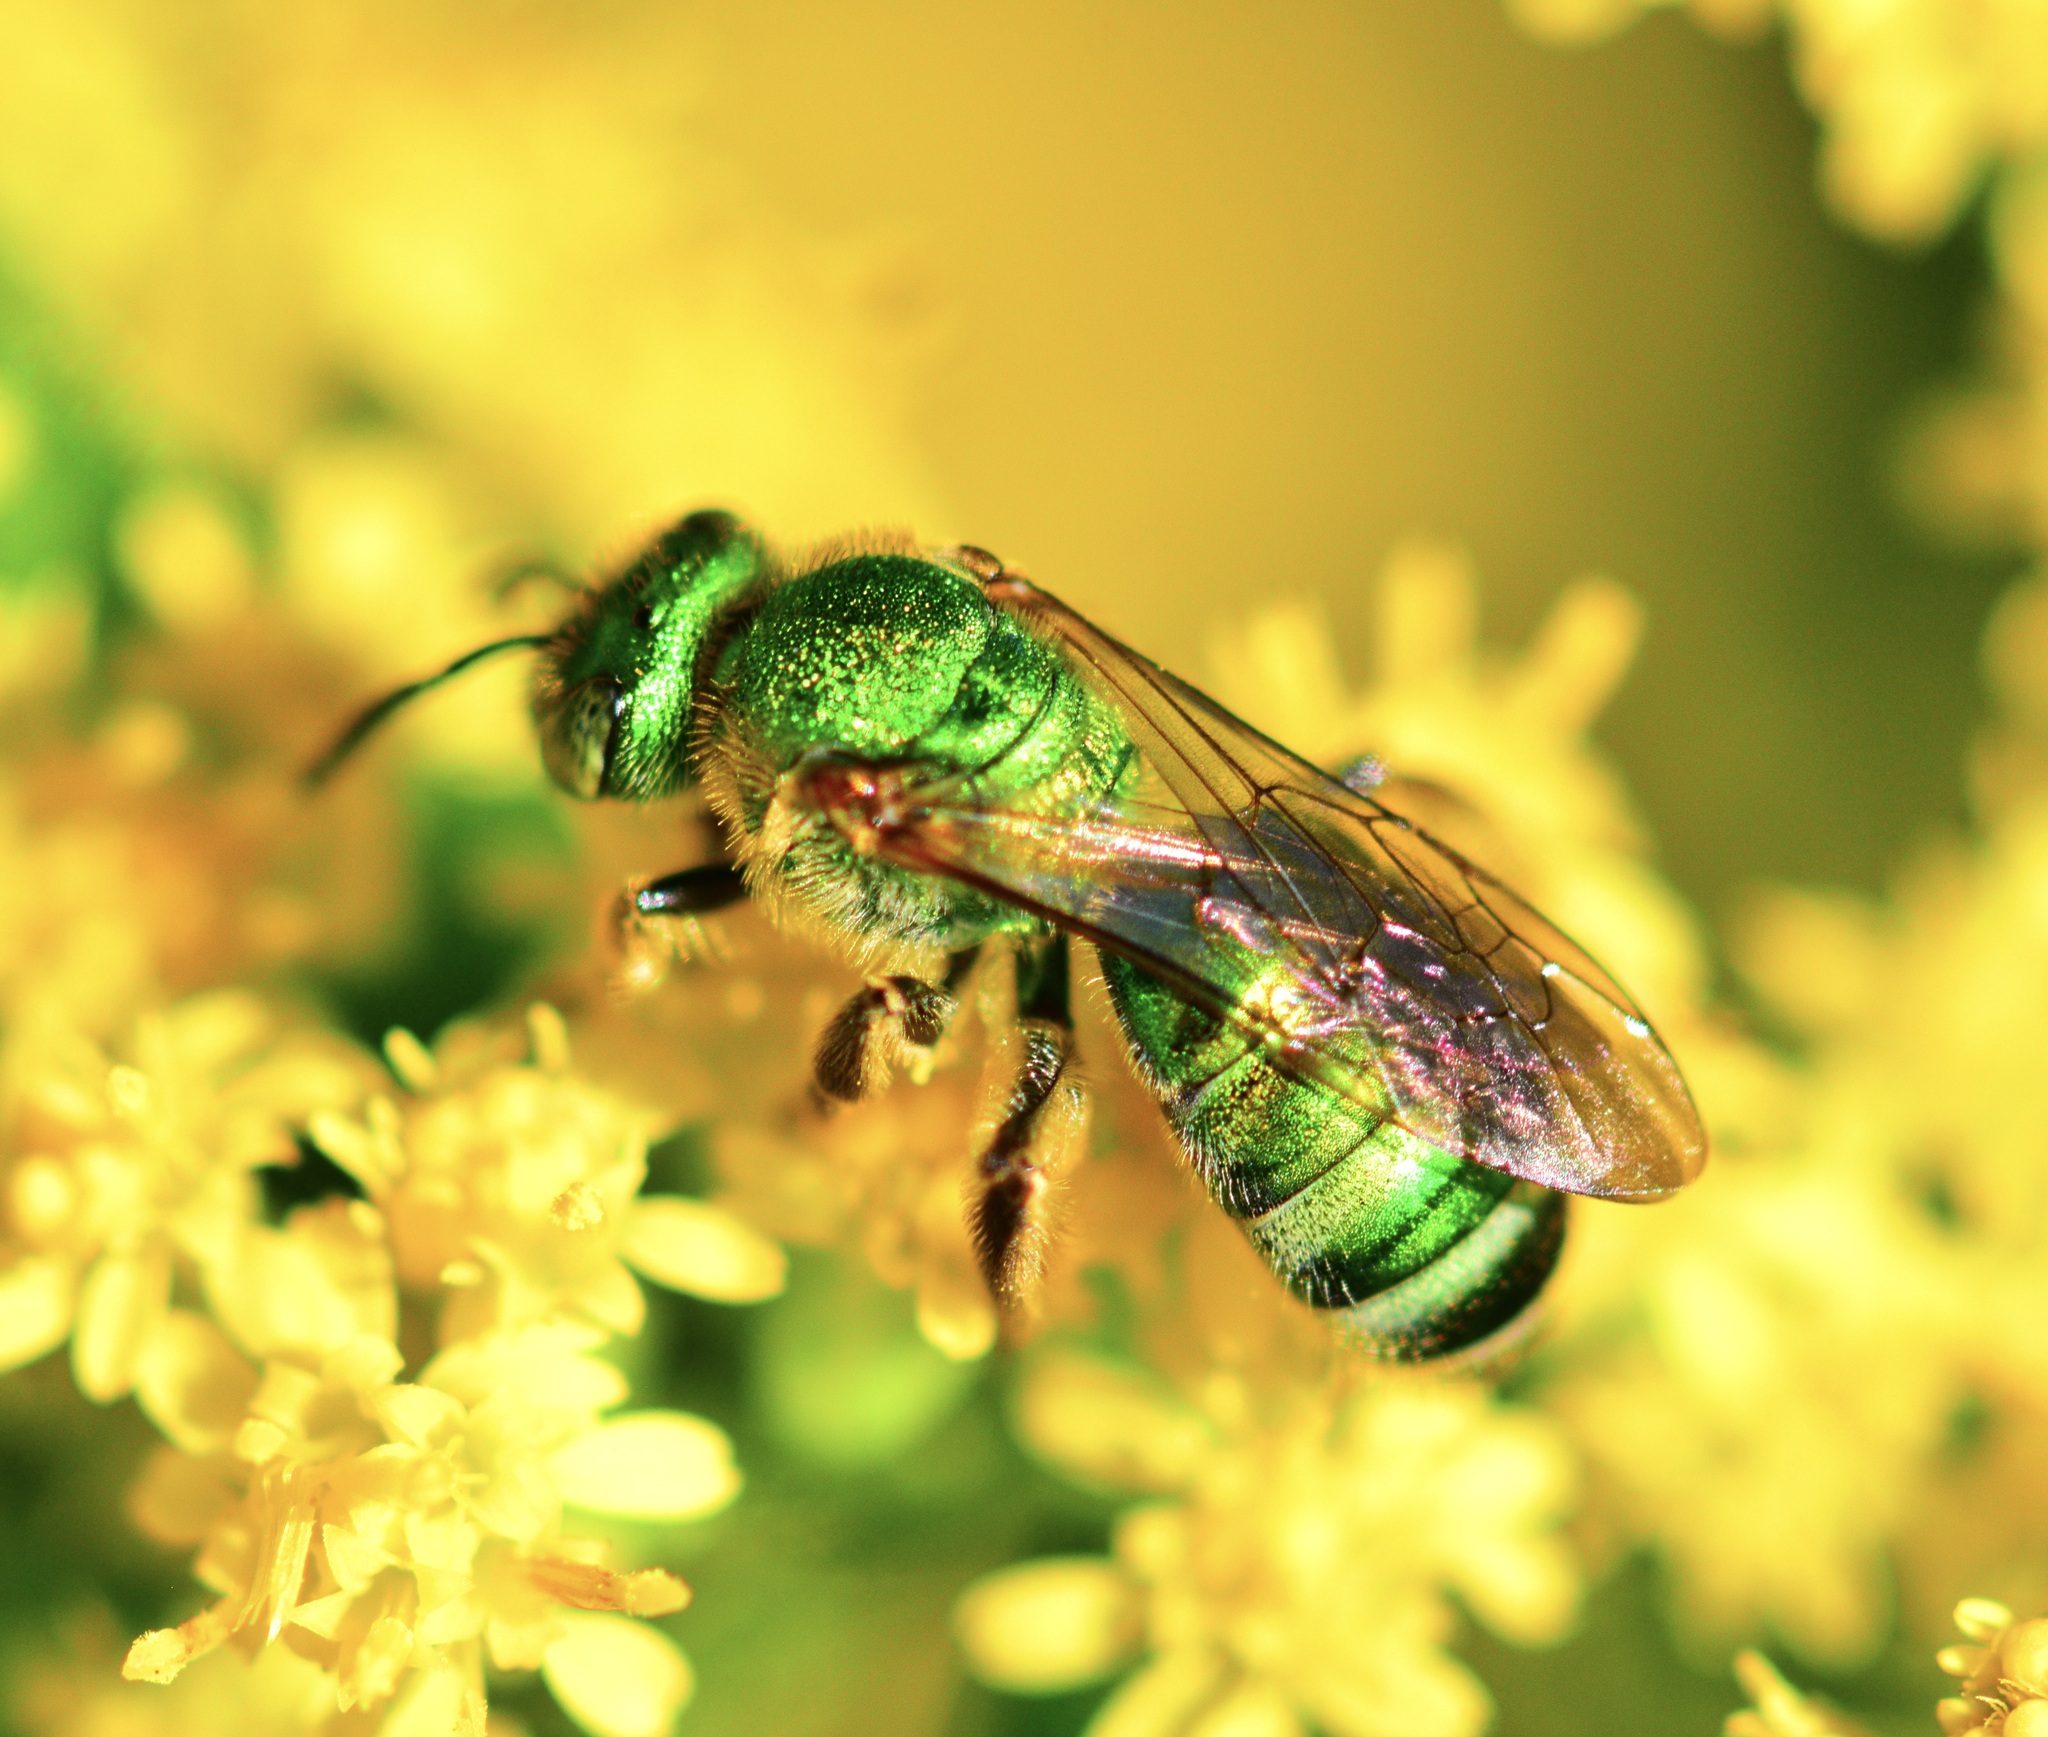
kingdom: Animalia
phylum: Arthropoda
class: Insecta
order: Hymenoptera
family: Halictidae
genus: Agapostemon
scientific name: Agapostemon sericeus
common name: Silky striped sweat bee
